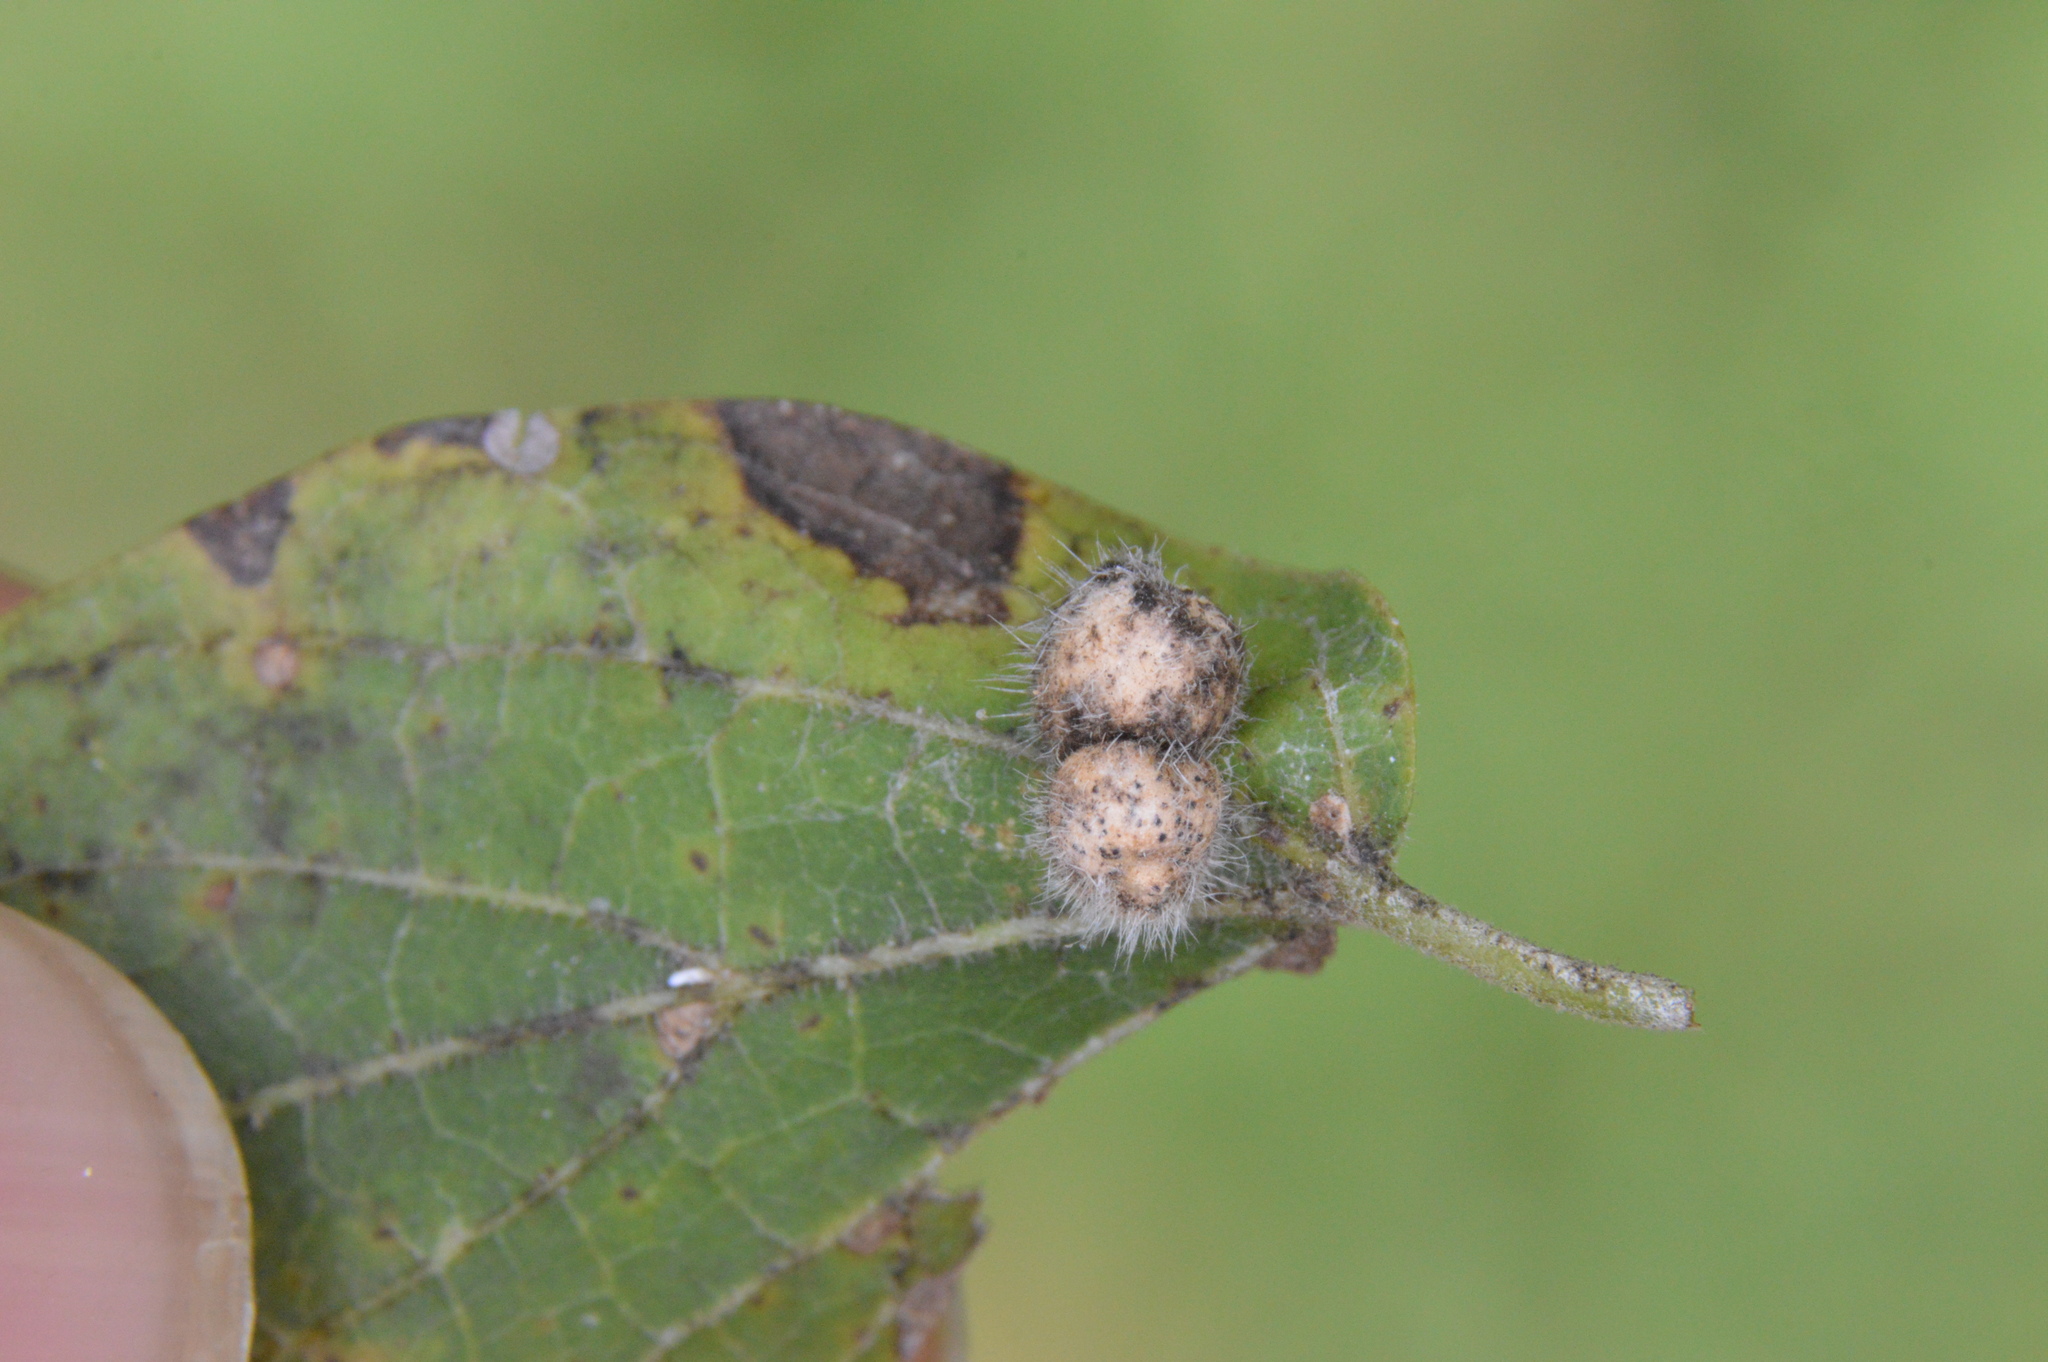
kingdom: Animalia
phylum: Arthropoda
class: Insecta
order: Diptera
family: Cecidomyiidae
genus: Celticecis
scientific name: Celticecis pubescens
